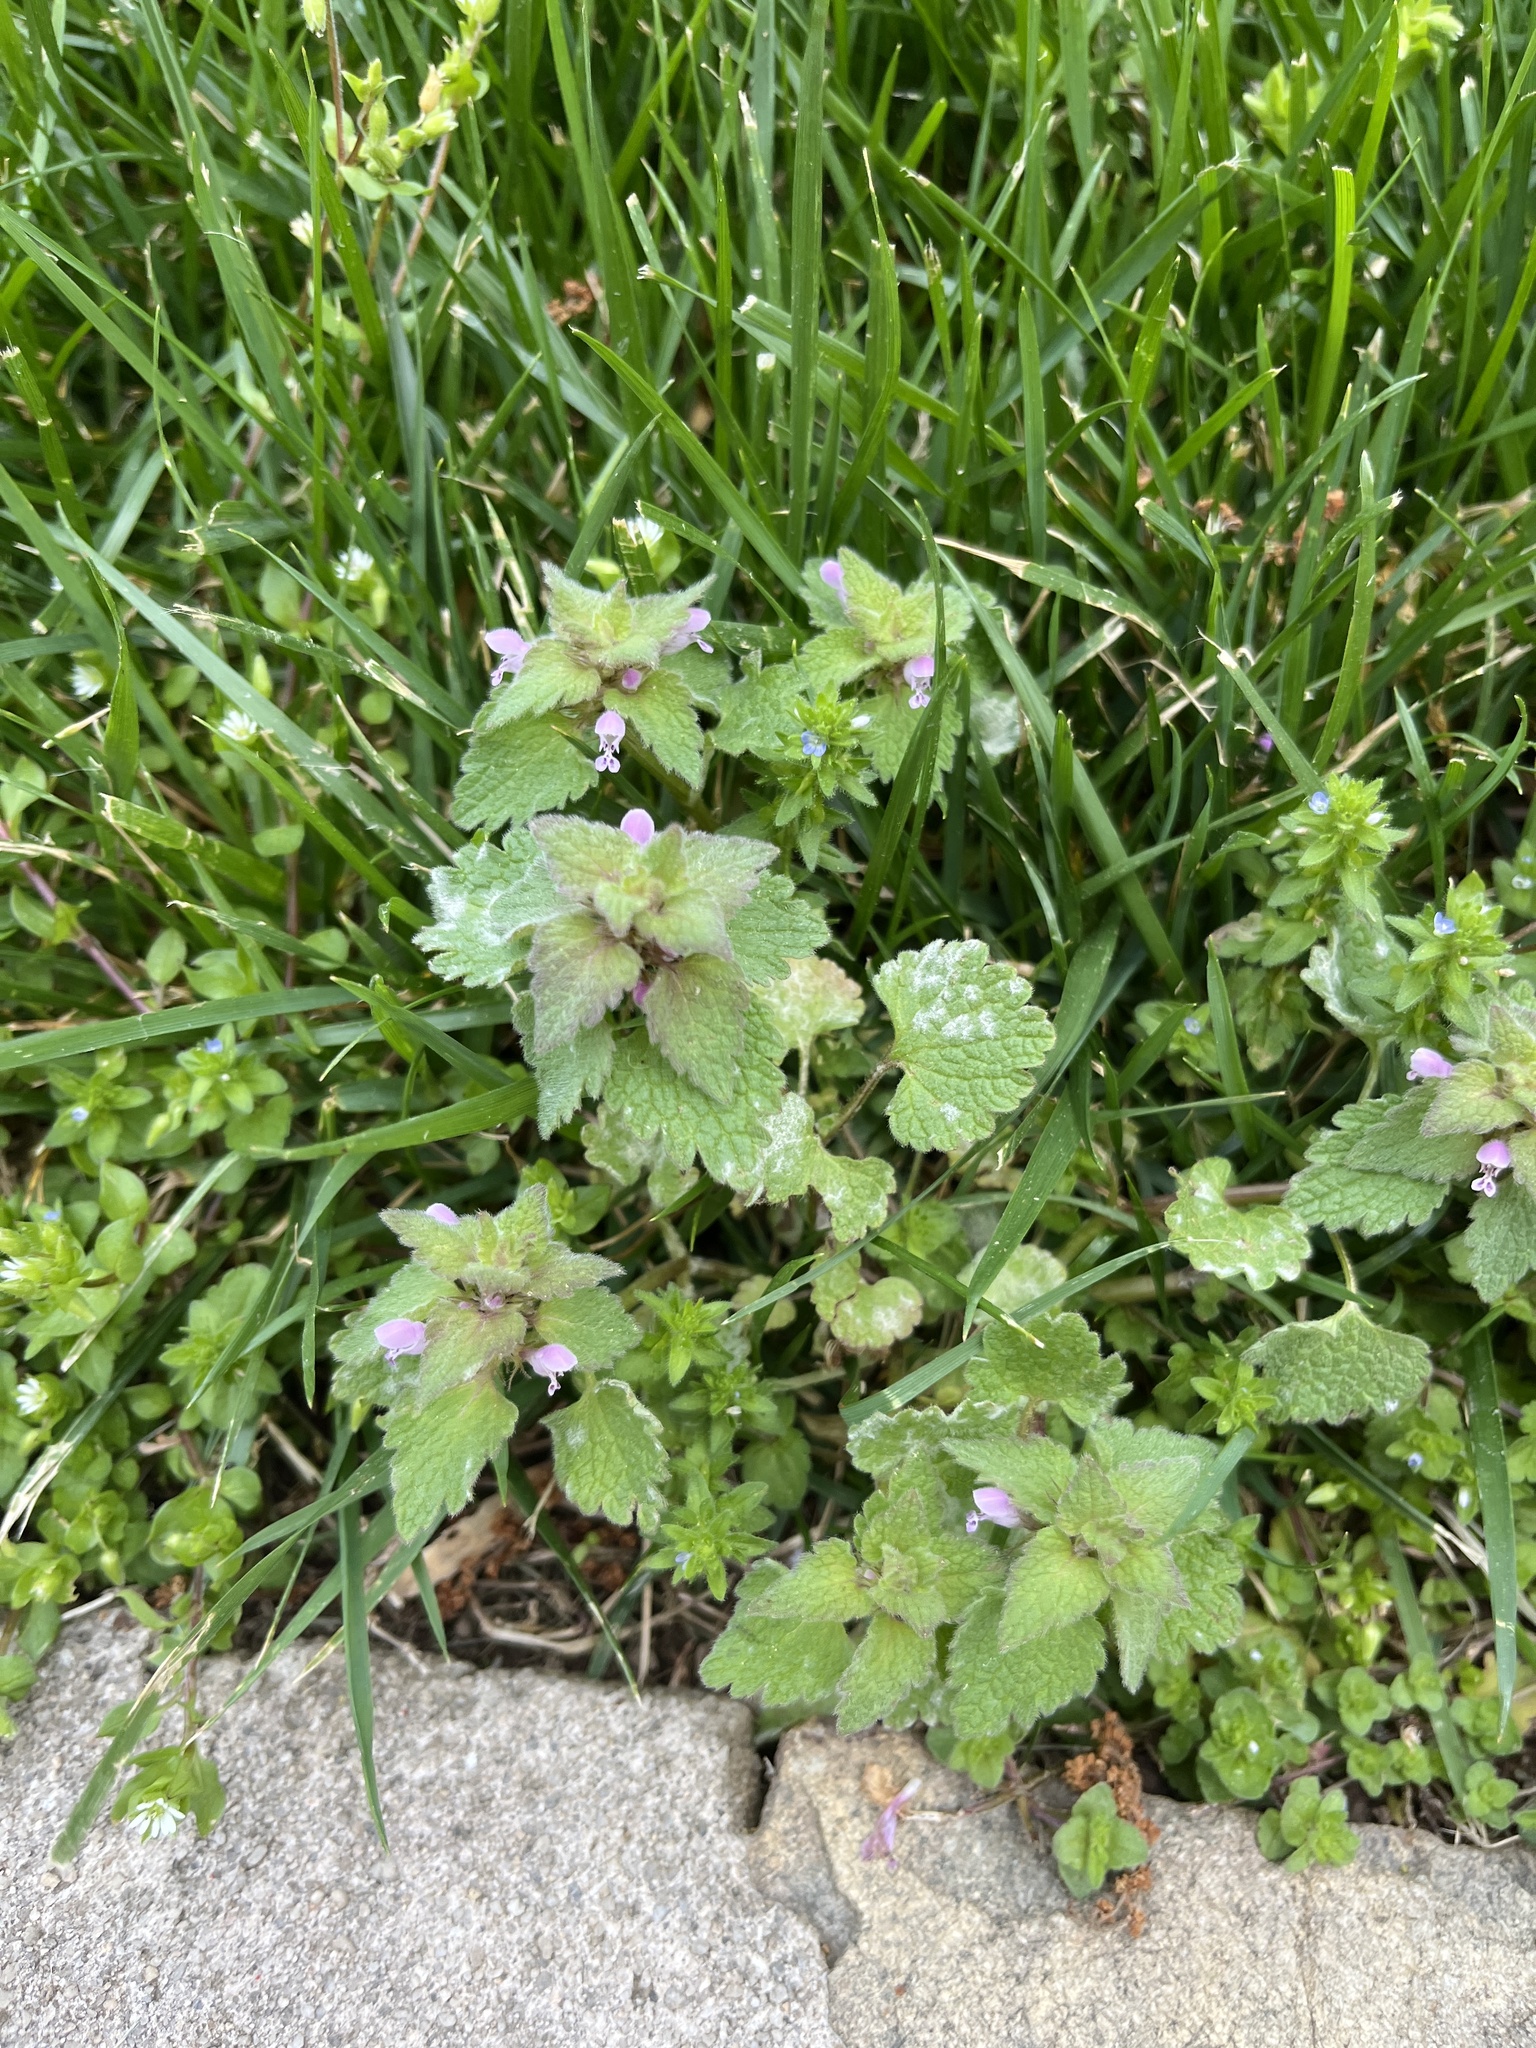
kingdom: Plantae
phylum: Tracheophyta
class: Magnoliopsida
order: Lamiales
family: Lamiaceae
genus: Lamium
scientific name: Lamium purpureum
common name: Red dead-nettle
